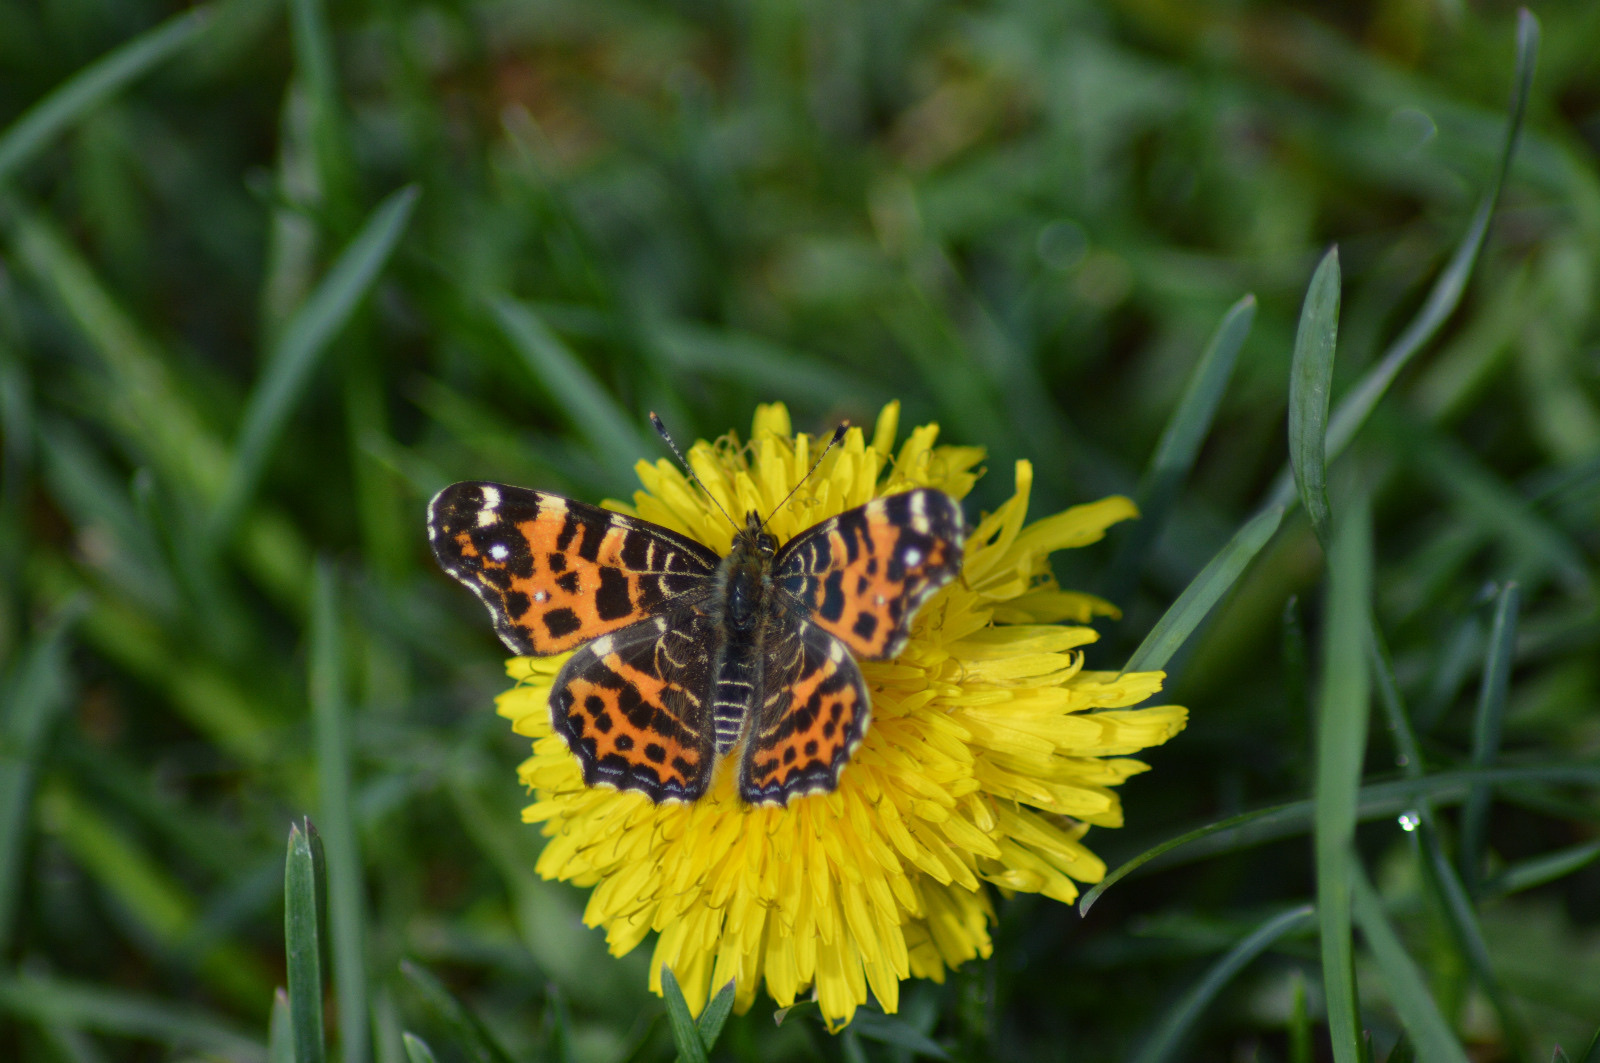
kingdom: Animalia
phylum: Arthropoda
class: Insecta
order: Lepidoptera
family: Nymphalidae
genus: Araschnia
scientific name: Araschnia levana
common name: Map butterfly
